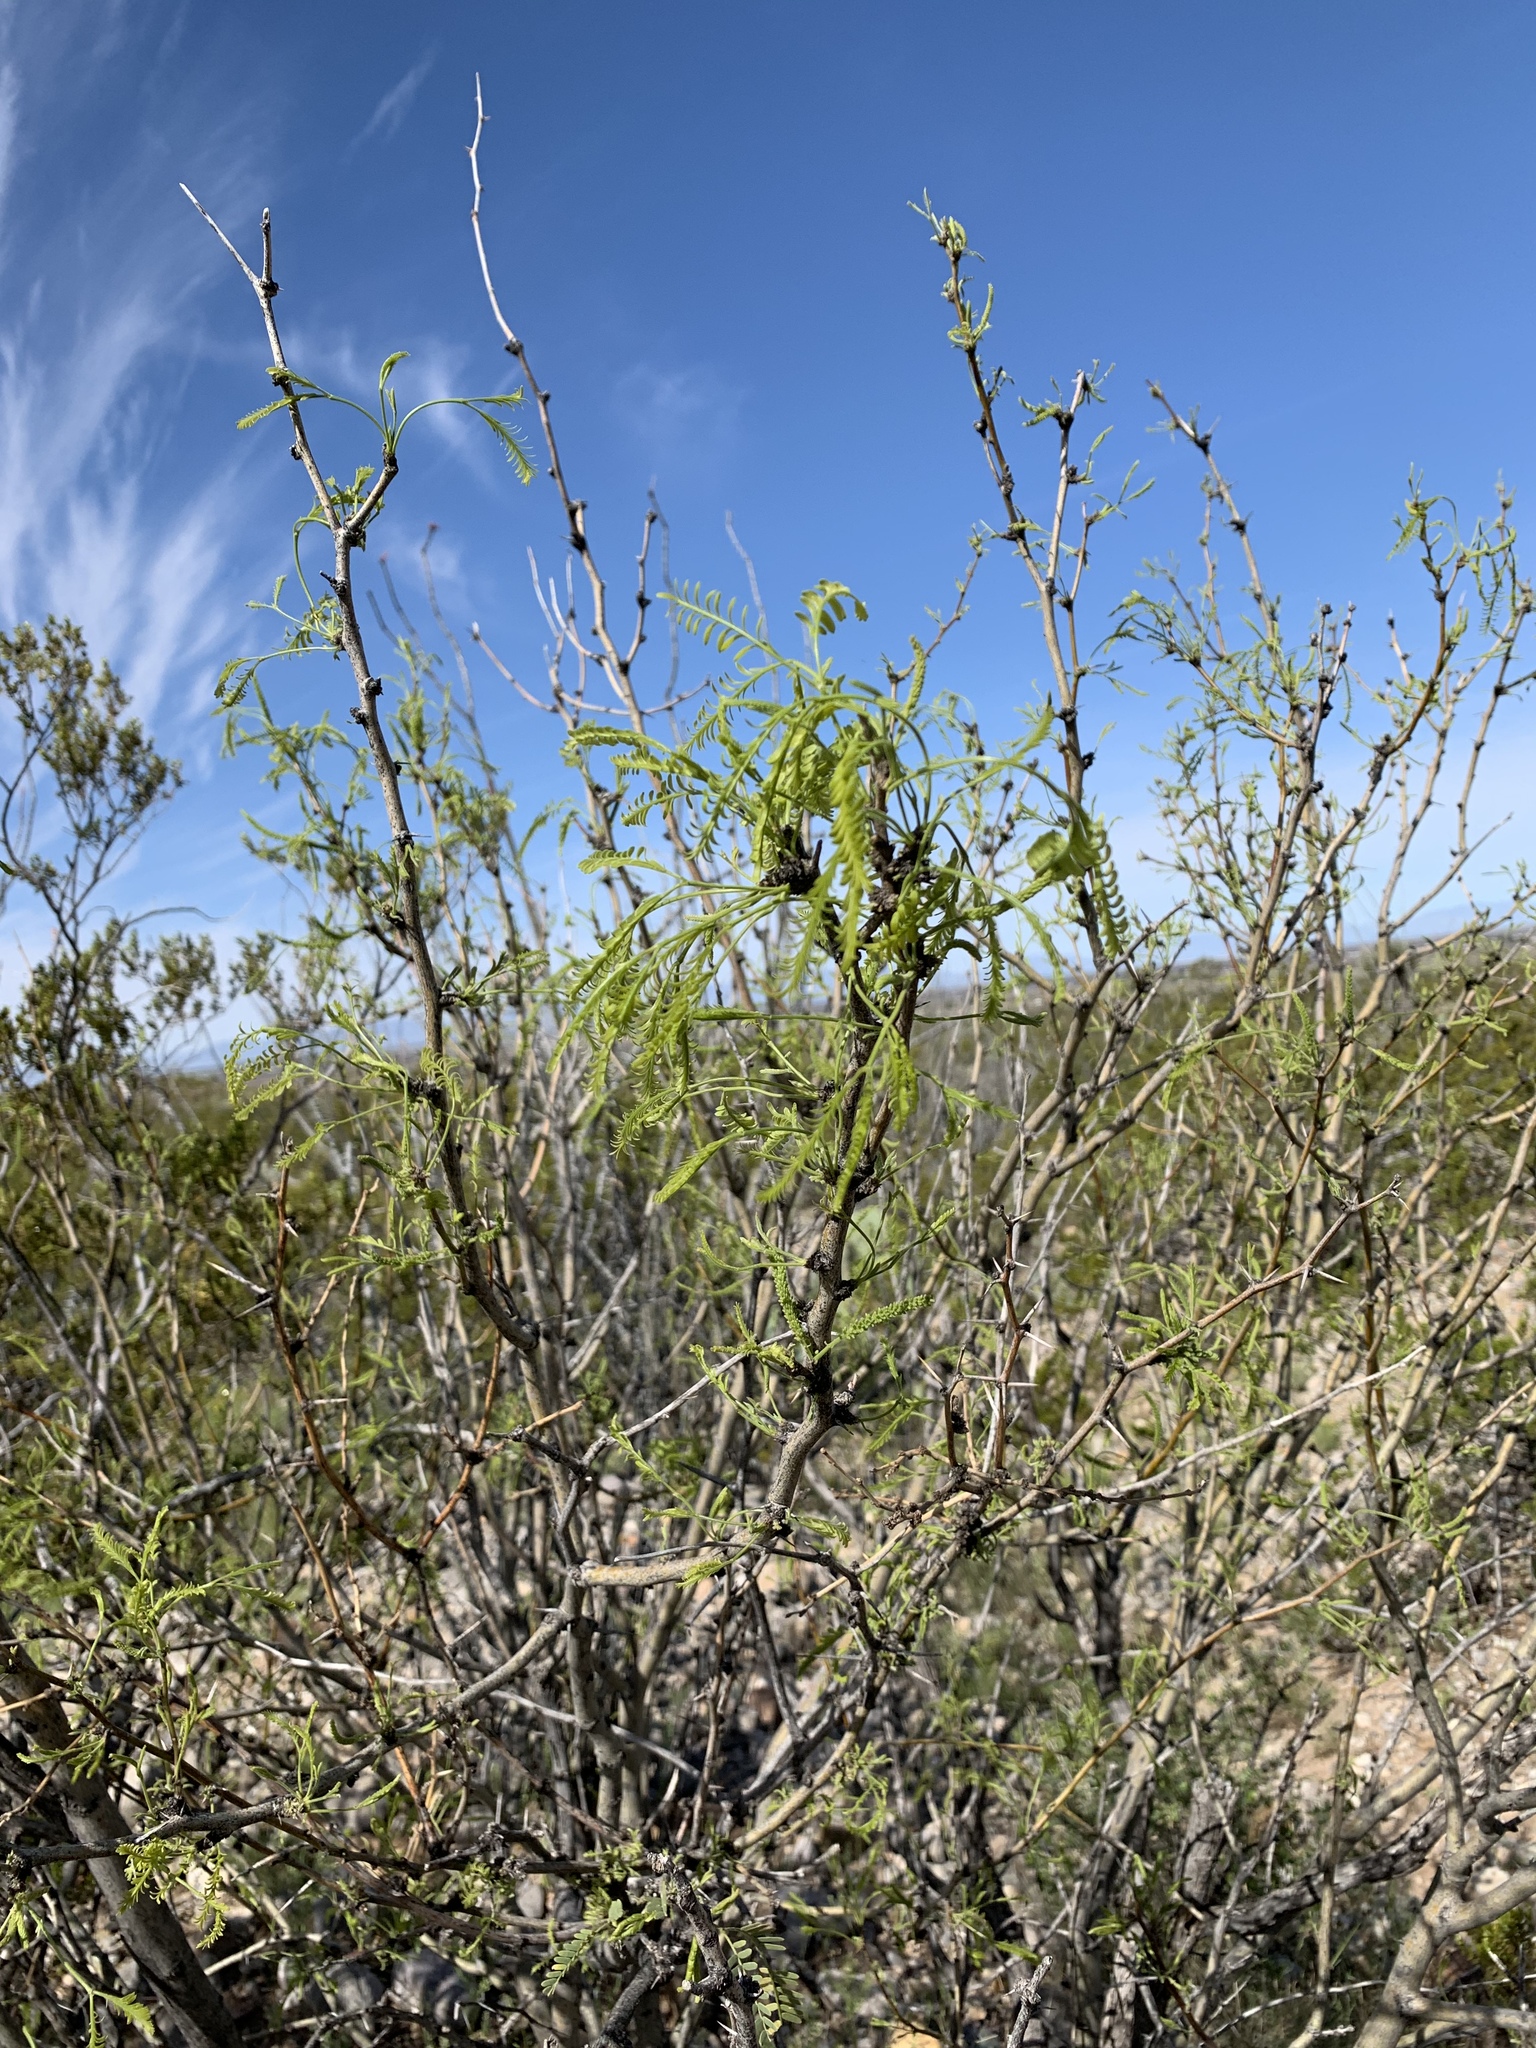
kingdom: Plantae
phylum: Tracheophyta
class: Magnoliopsida
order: Fabales
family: Fabaceae
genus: Prosopis
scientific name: Prosopis glandulosa
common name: Honey mesquite
